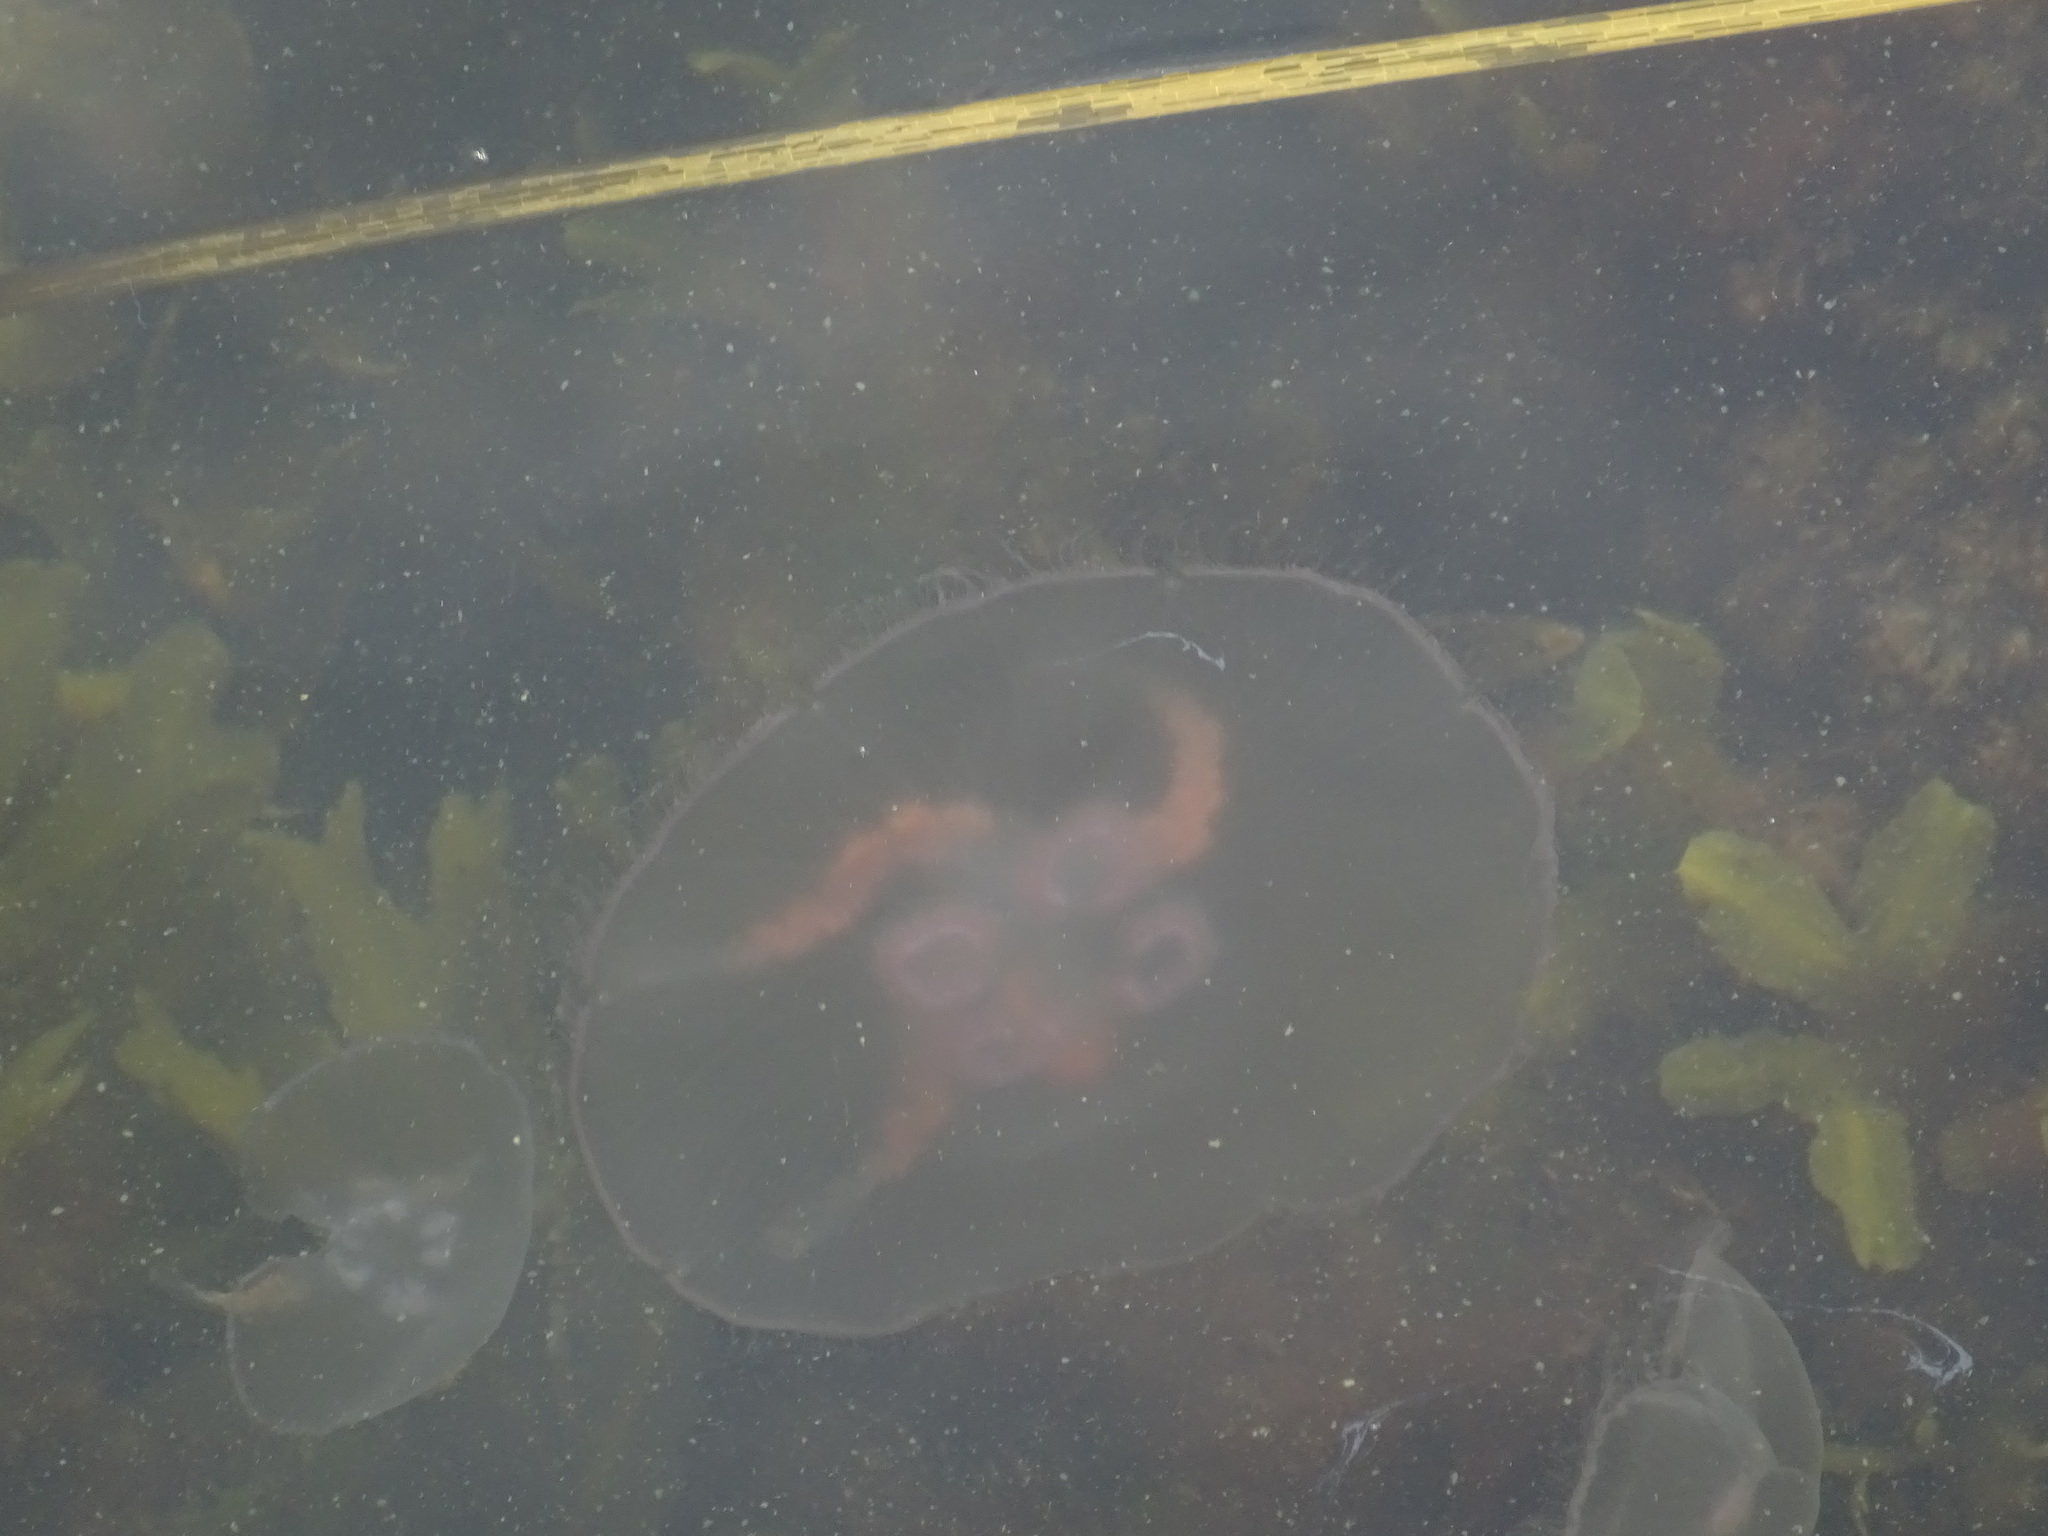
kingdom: Animalia
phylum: Cnidaria
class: Scyphozoa
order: Semaeostomeae
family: Ulmaridae
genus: Aurelia
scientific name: Aurelia aurita
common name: Moon jellyfish
